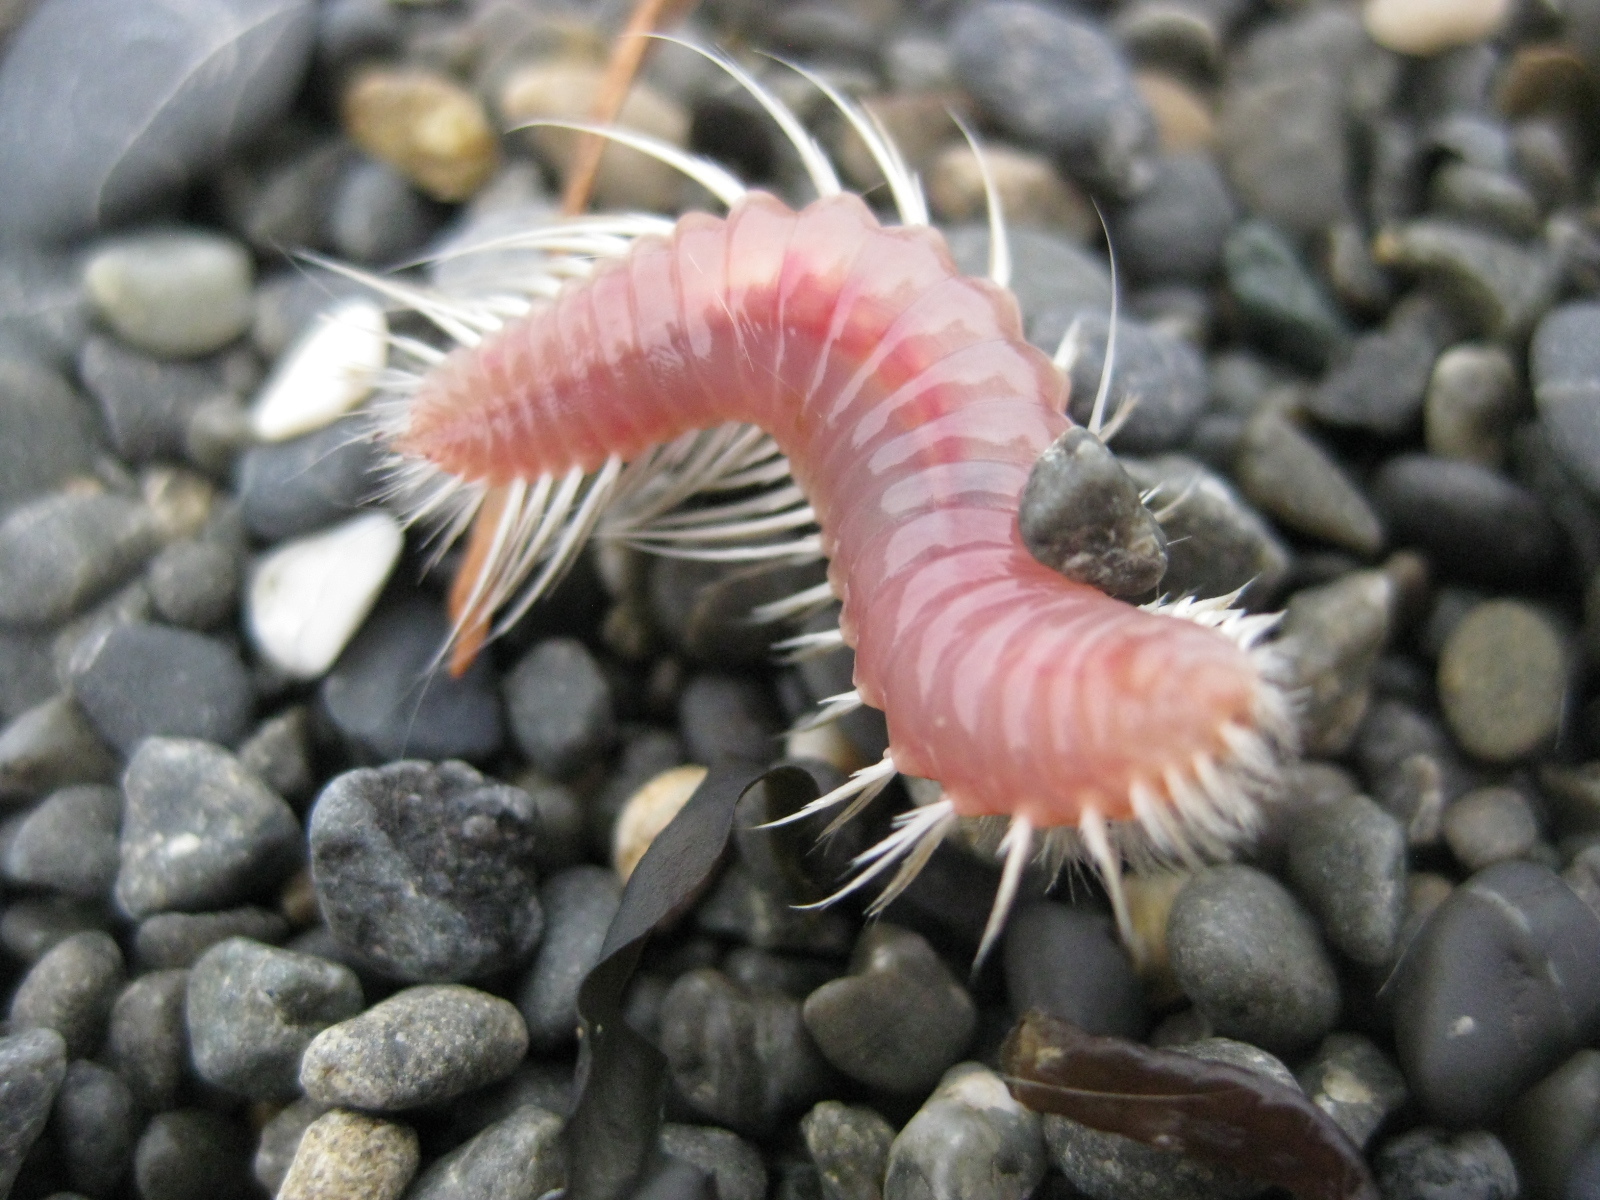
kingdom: Animalia
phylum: Annelida
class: Polychaeta
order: Amphinomida
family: Amphinomidae
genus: Chloeia
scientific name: Chloeia inermis
